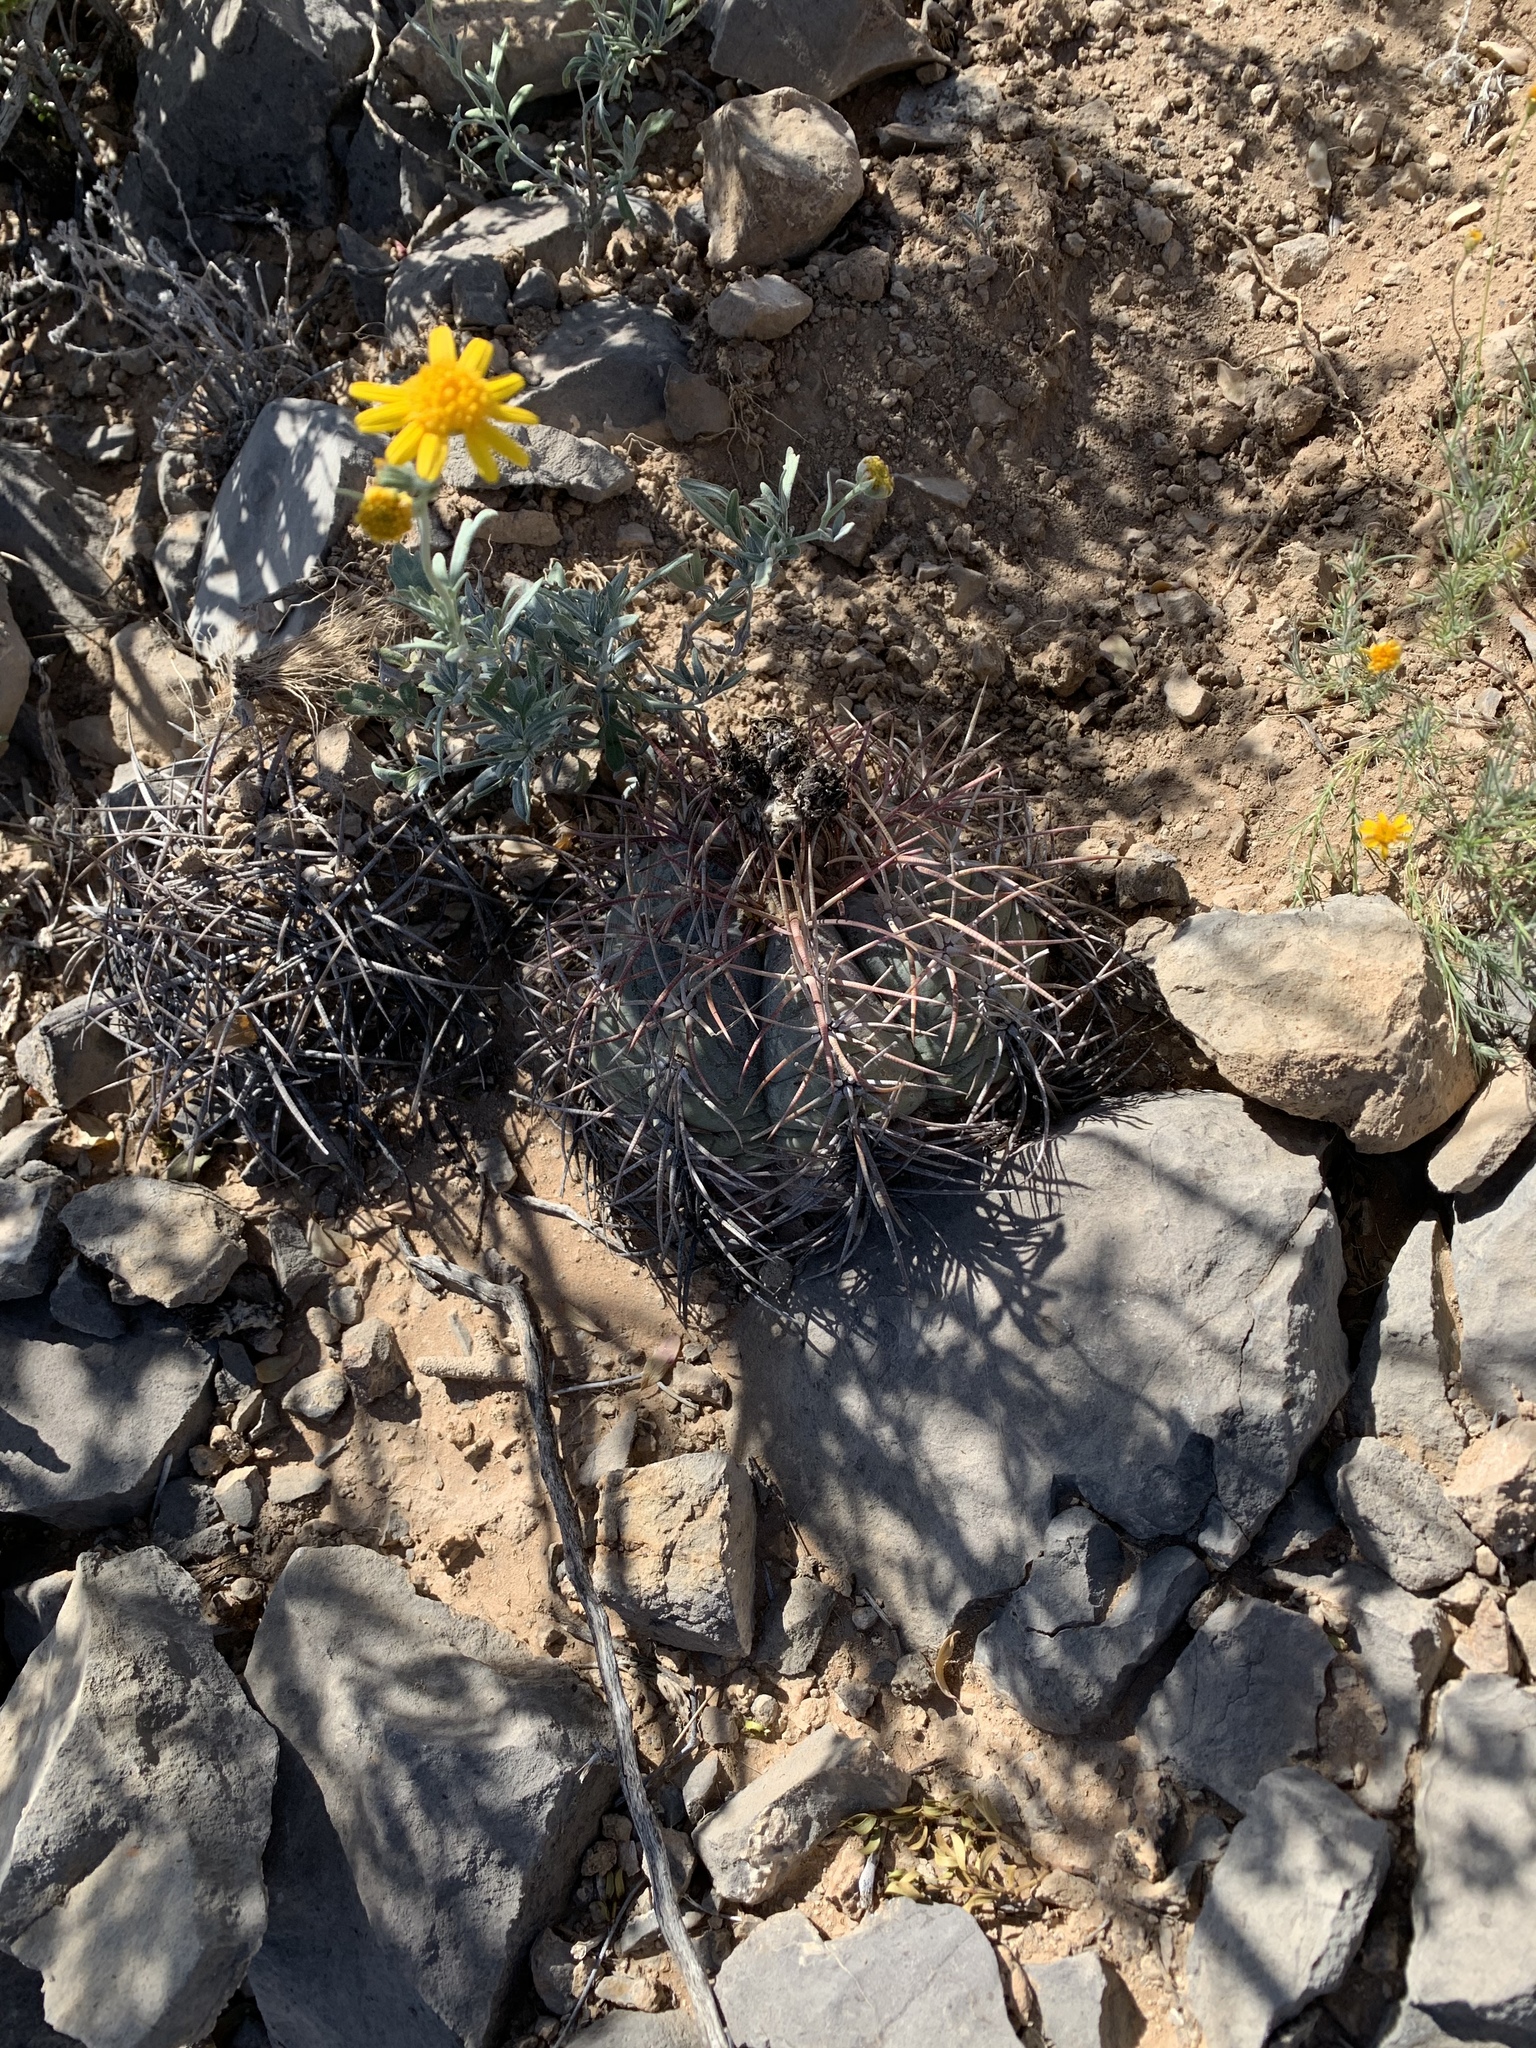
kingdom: Plantae
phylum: Tracheophyta
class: Magnoliopsida
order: Caryophyllales
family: Cactaceae
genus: Echinocactus
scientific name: Echinocactus horizonthalonius
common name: Devilshead
